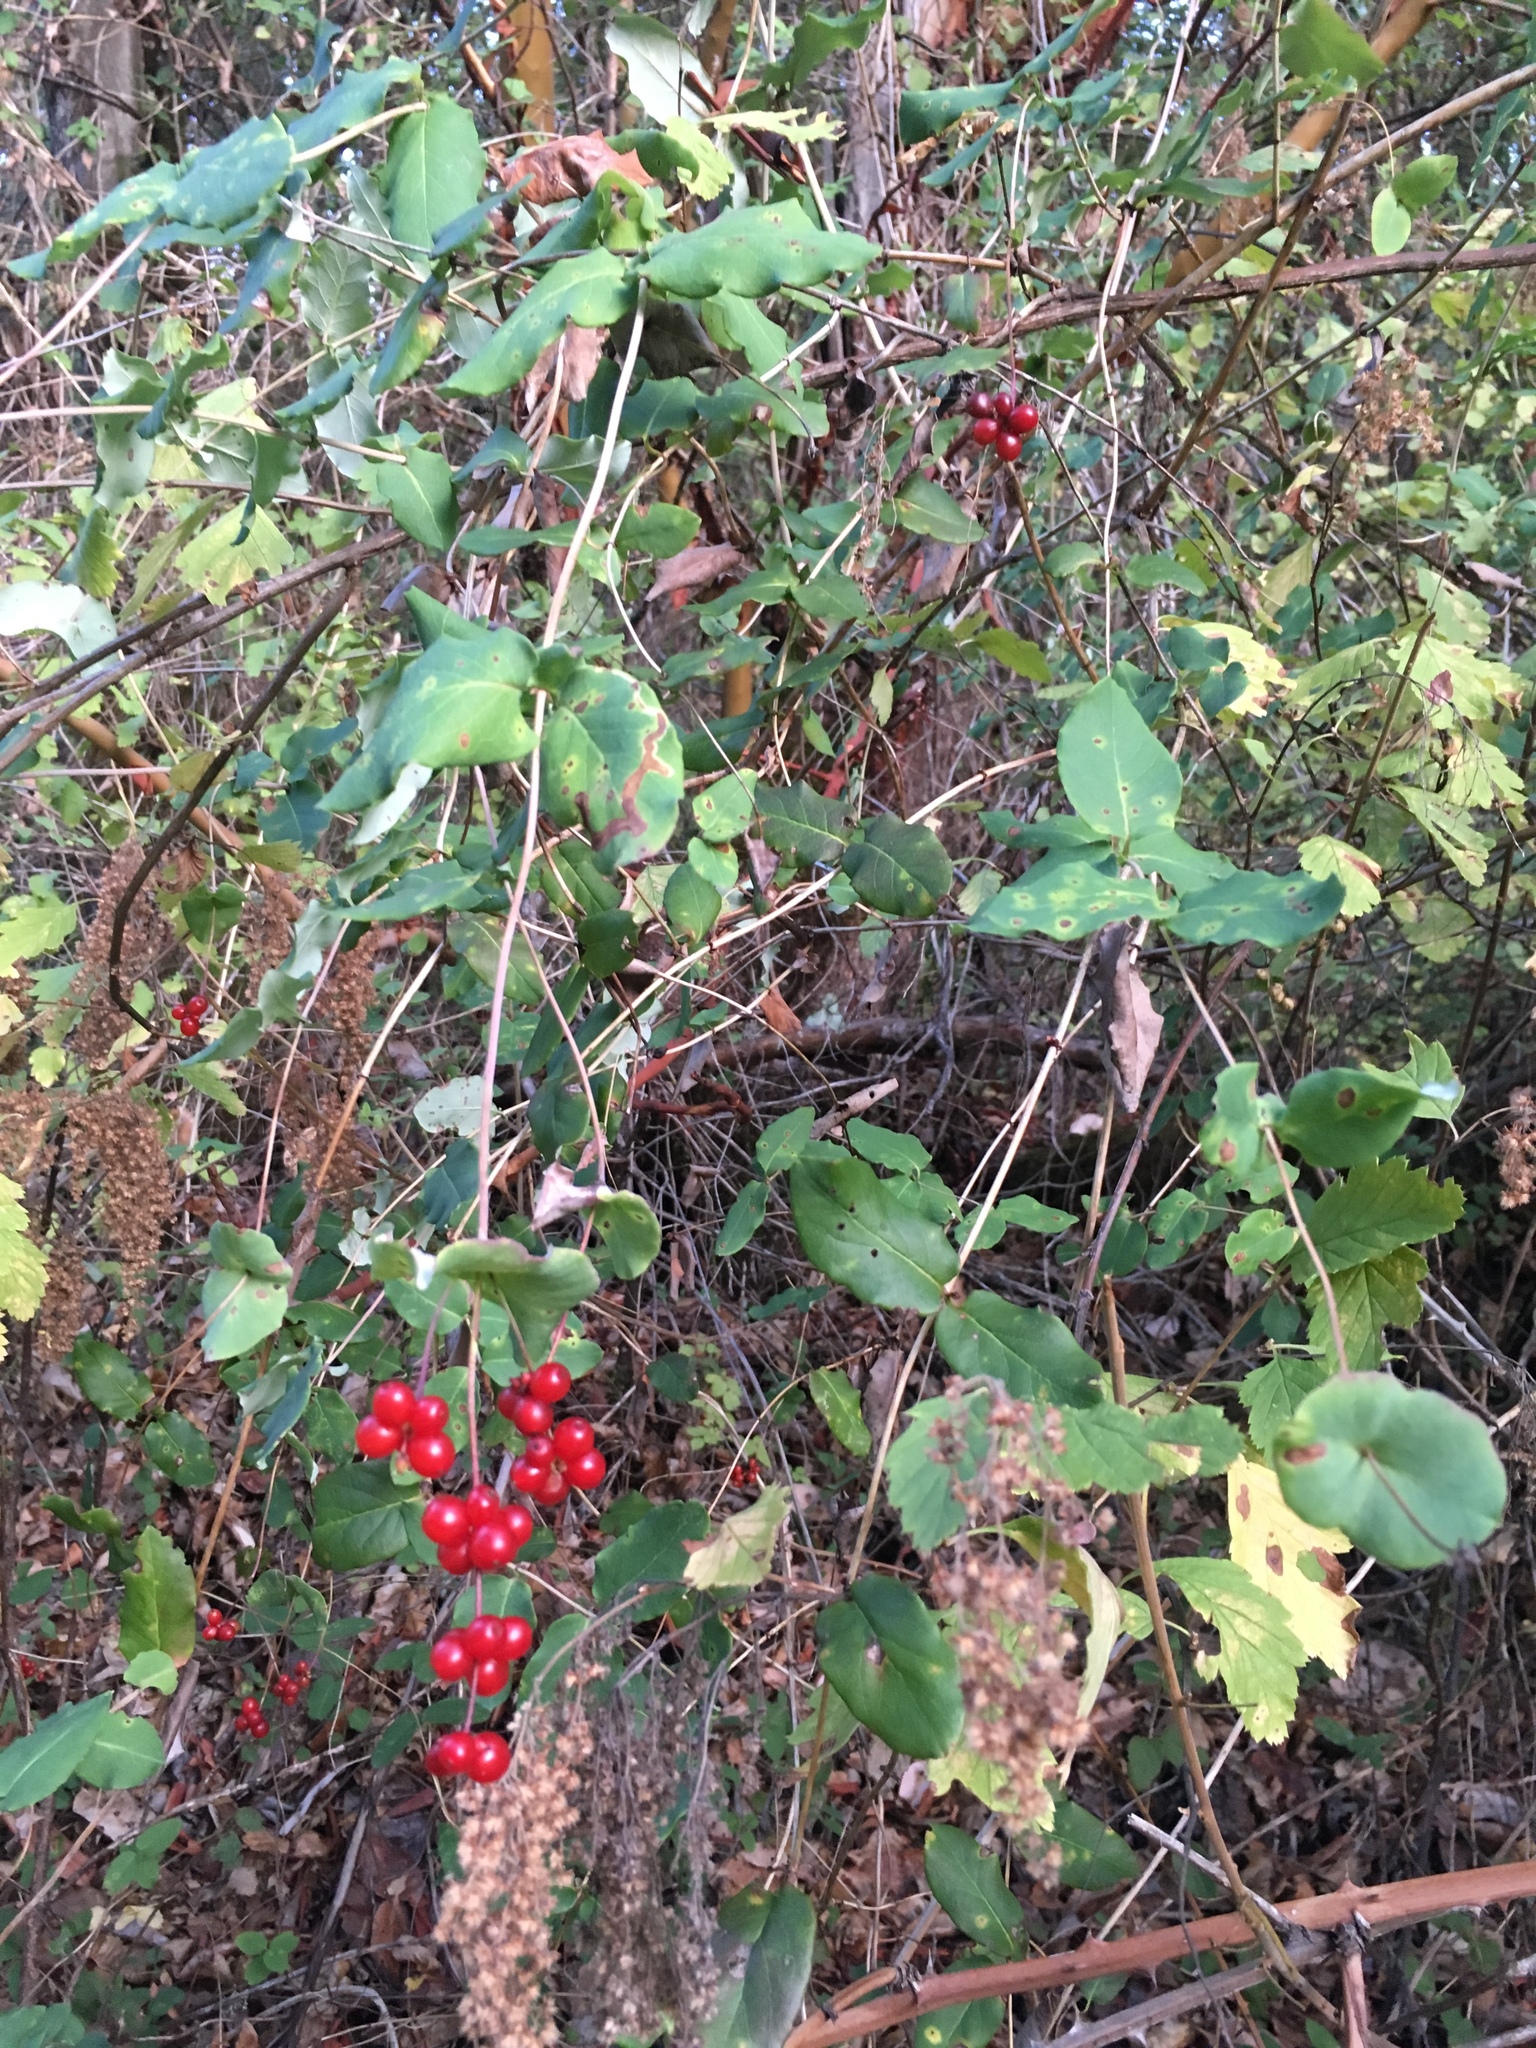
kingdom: Plantae
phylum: Tracheophyta
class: Magnoliopsida
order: Dipsacales
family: Caprifoliaceae
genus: Lonicera
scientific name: Lonicera hispidula
